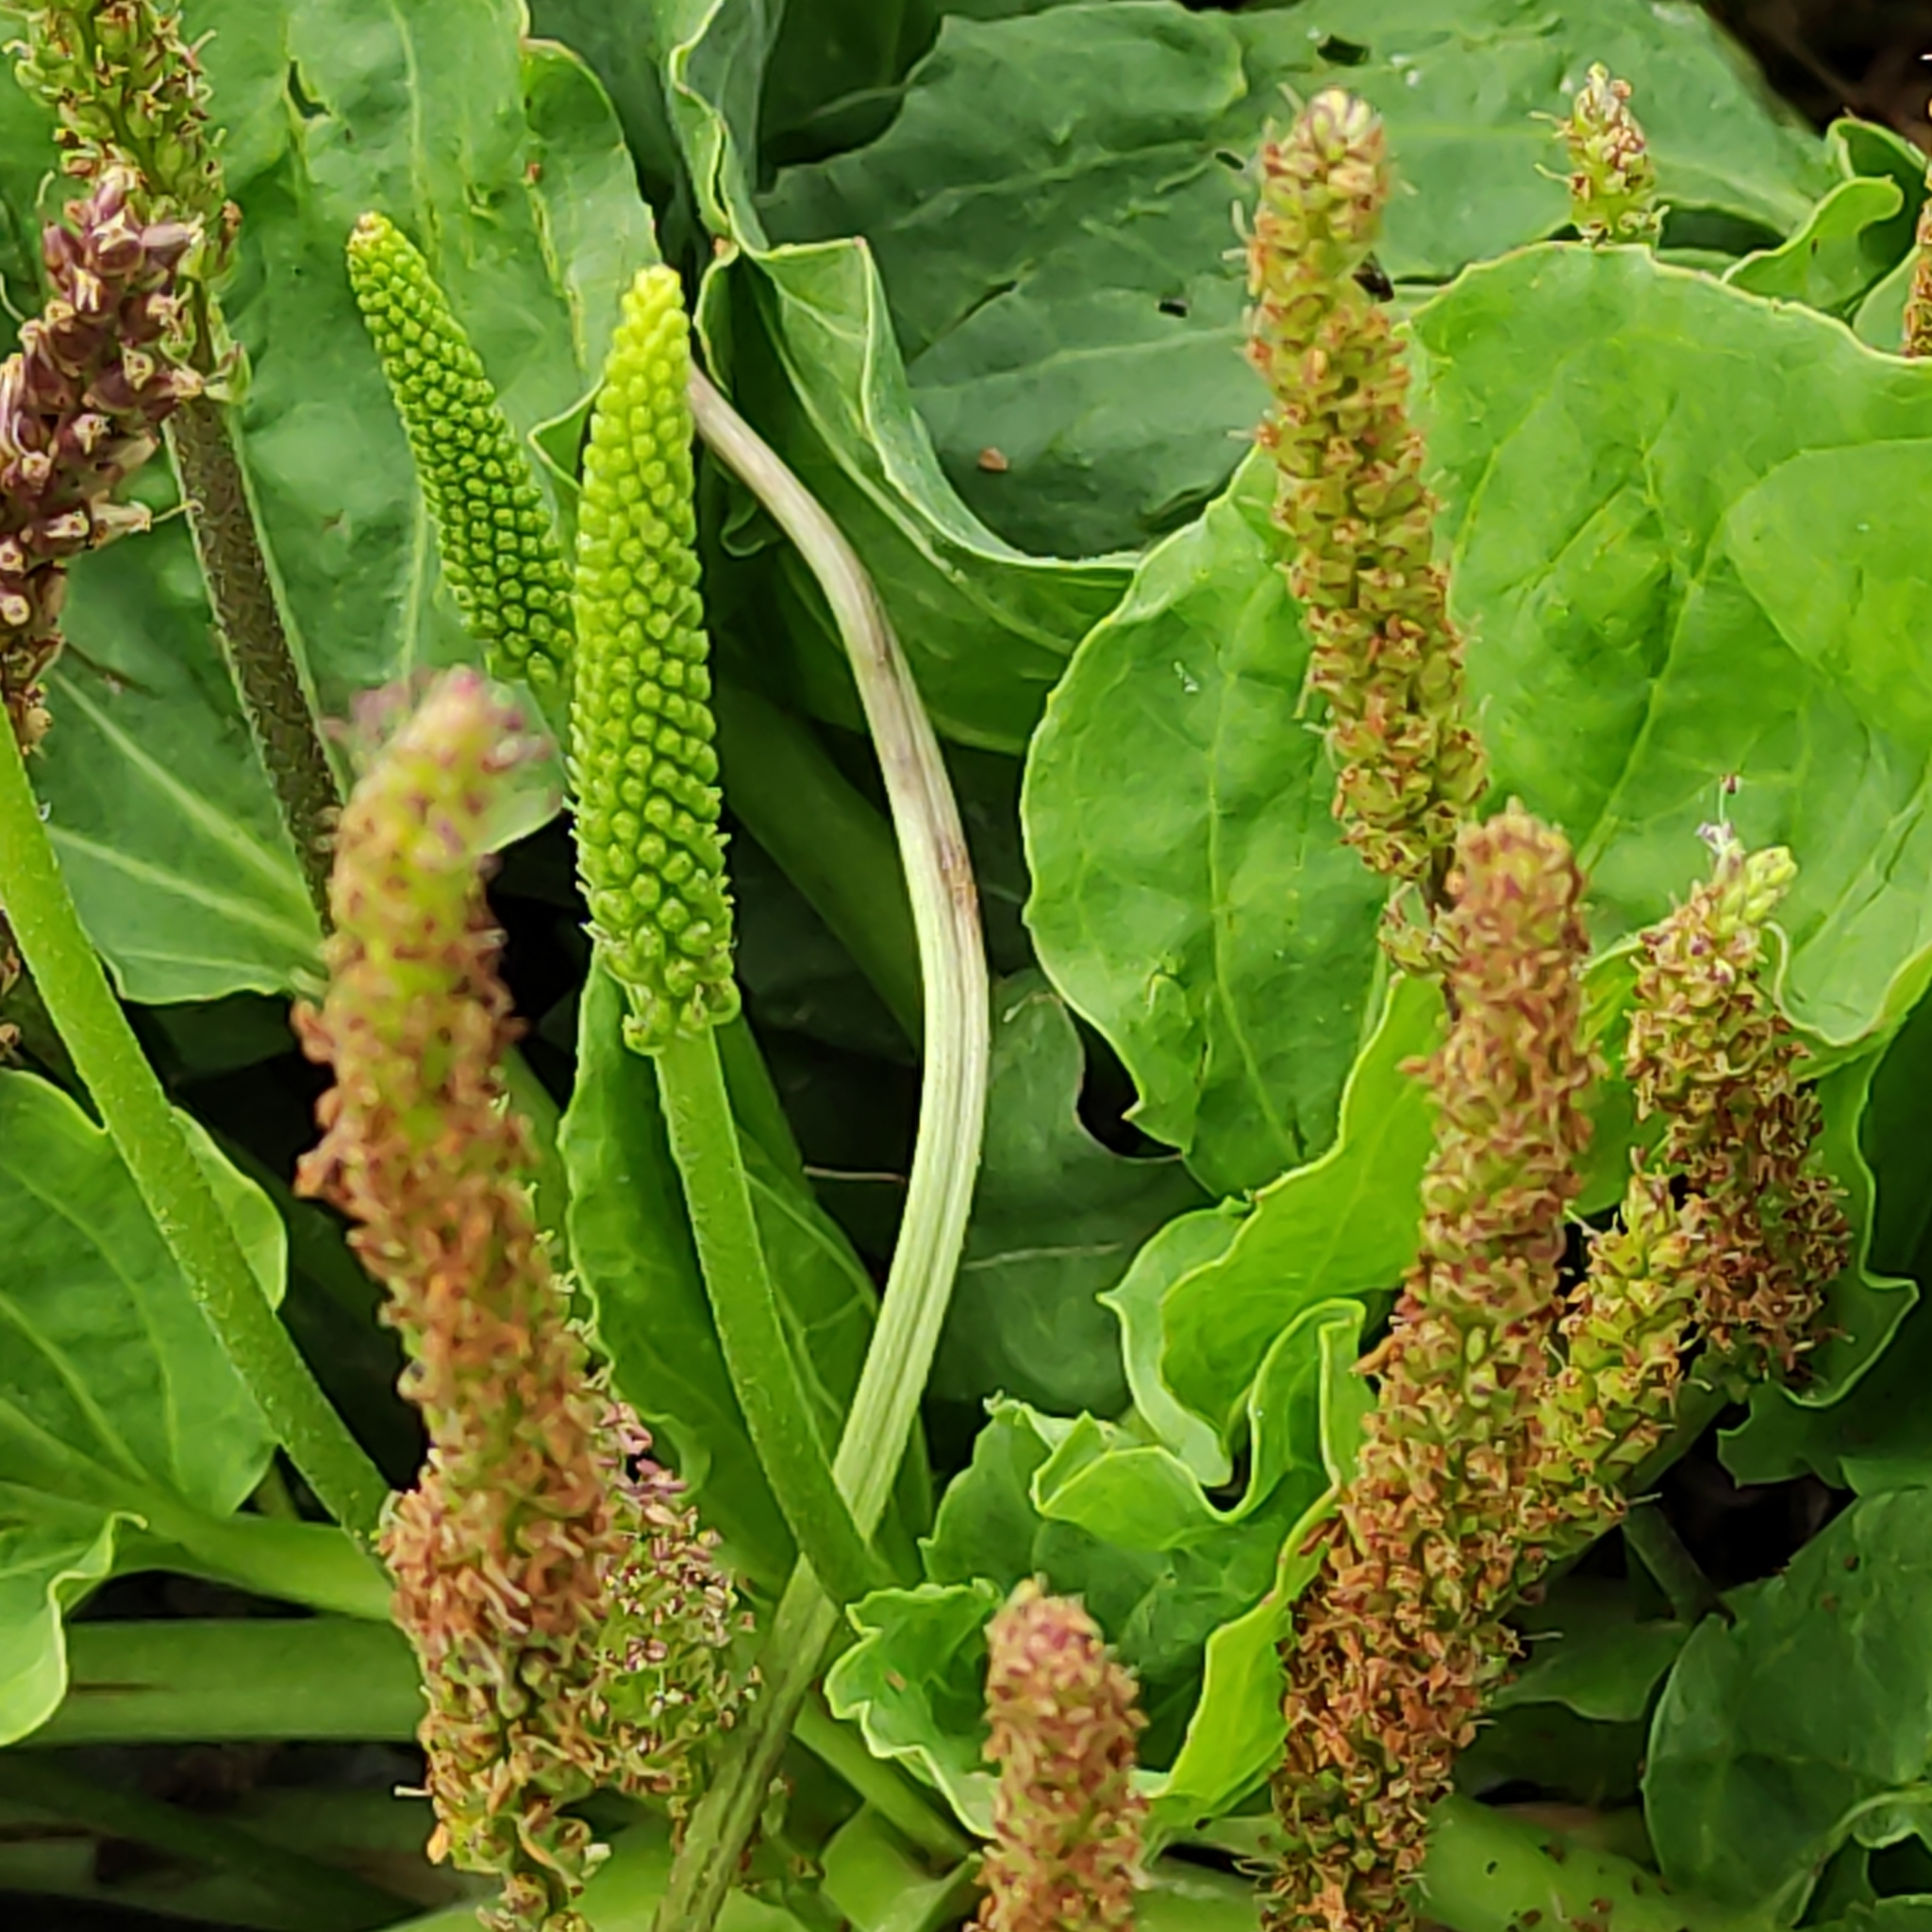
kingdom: Plantae
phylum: Tracheophyta
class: Magnoliopsida
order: Lamiales
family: Plantaginaceae
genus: Plantago
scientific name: Plantago major
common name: Common plantain
